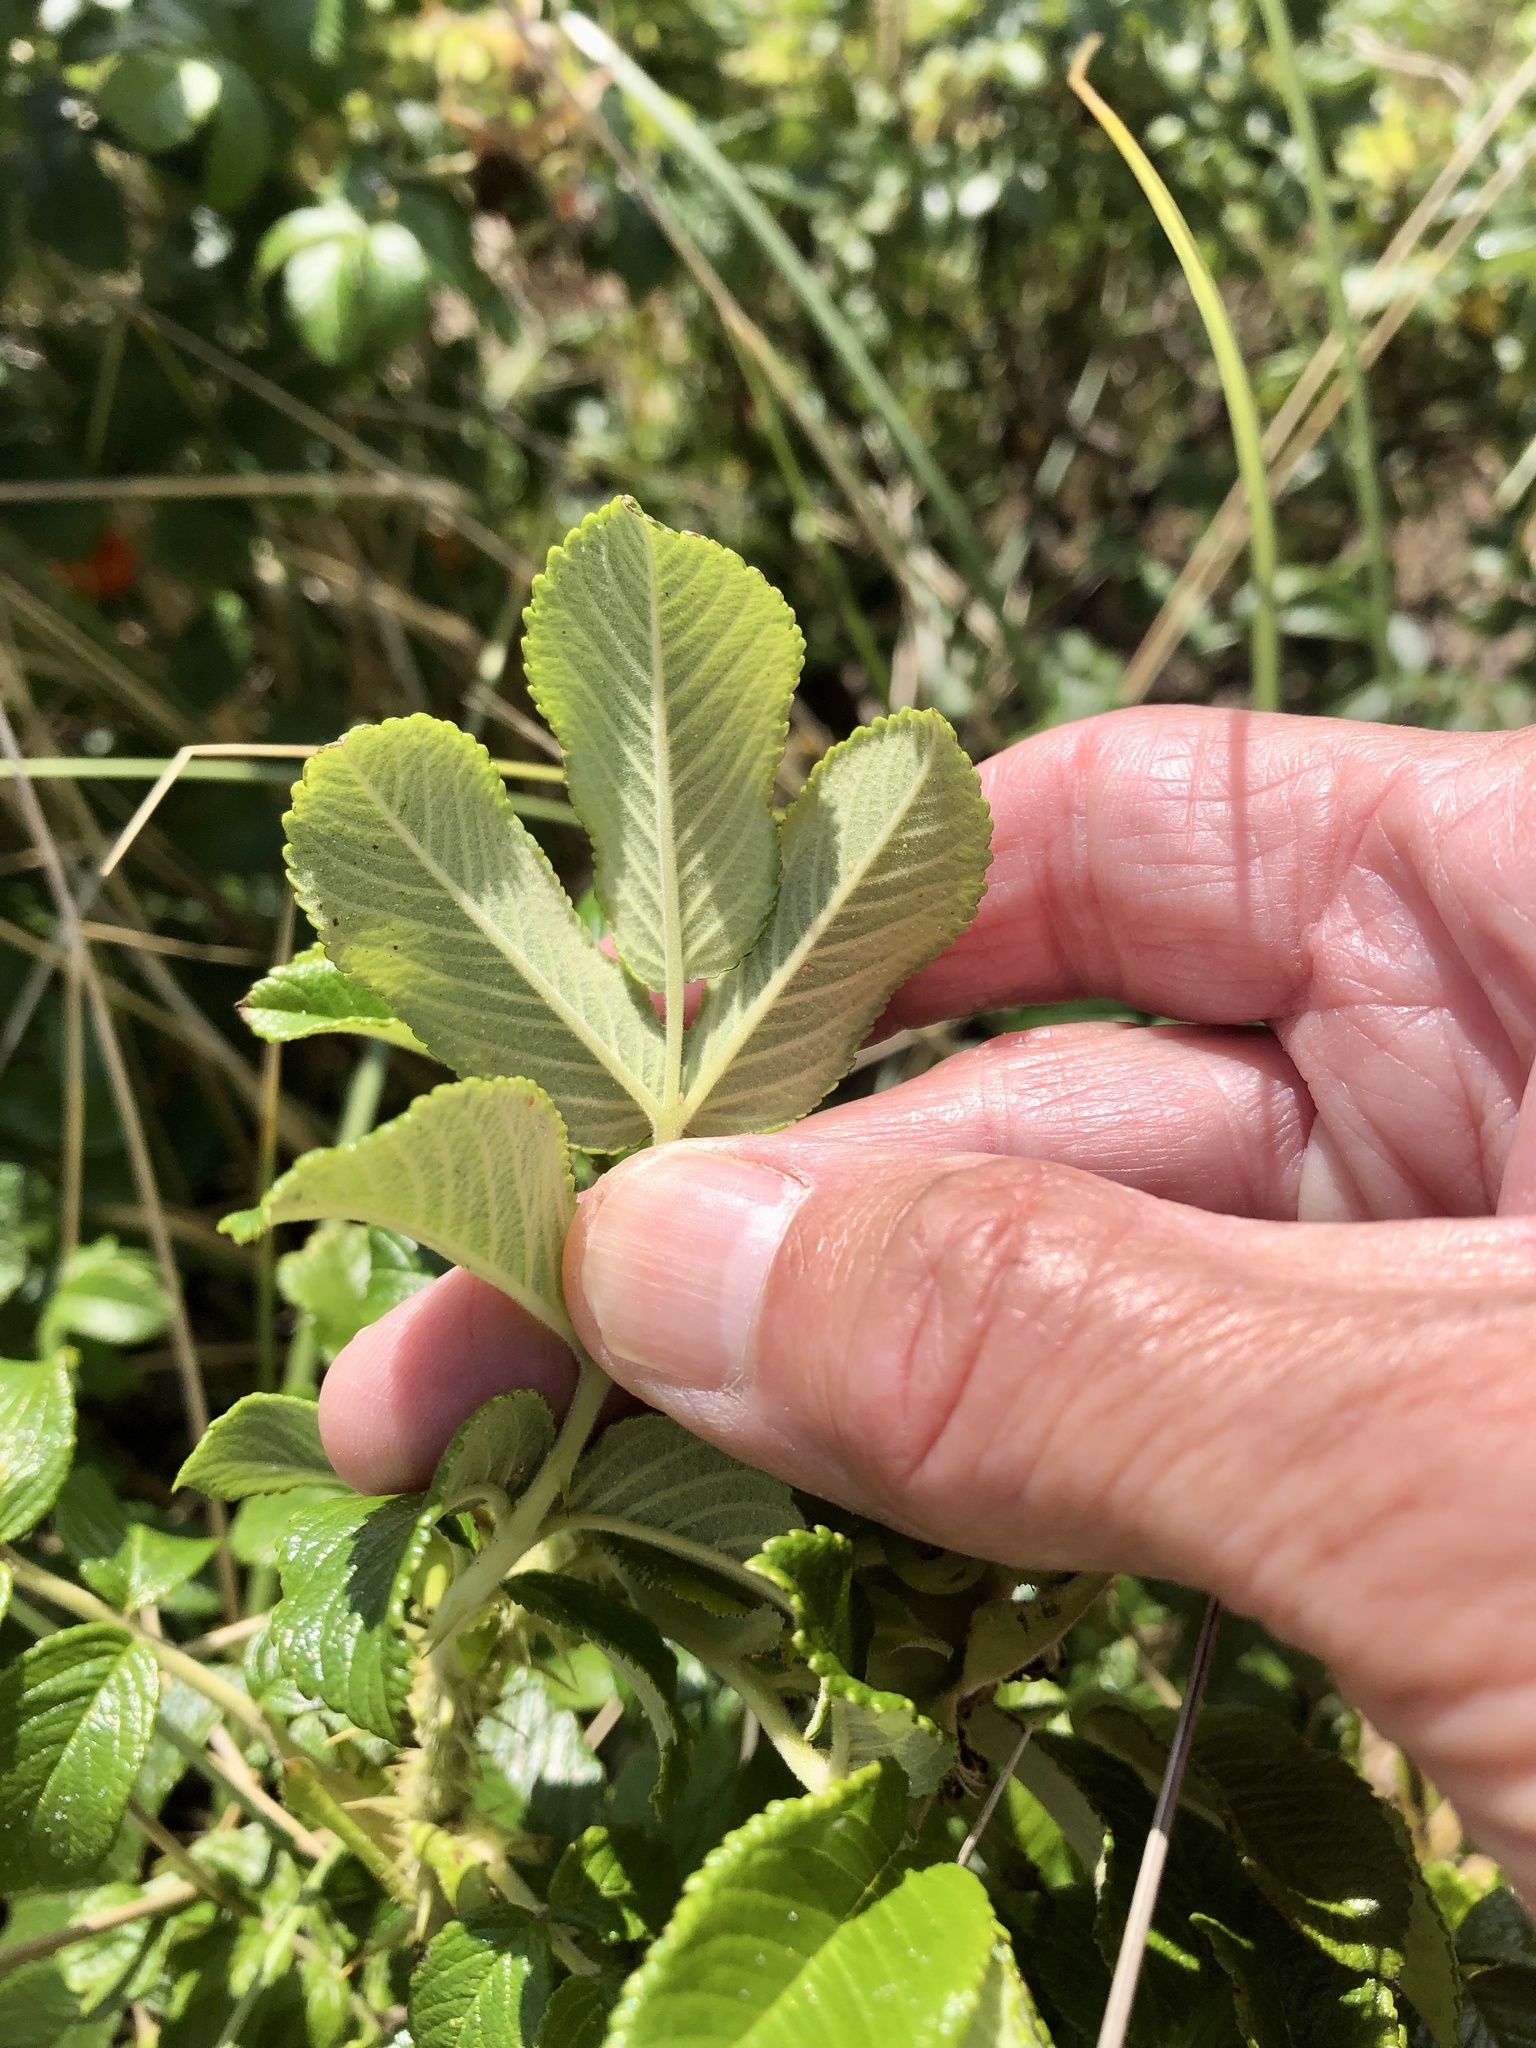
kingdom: Plantae
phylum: Tracheophyta
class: Magnoliopsida
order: Rosales
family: Rosaceae
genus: Rosa
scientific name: Rosa rugosa
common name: Japanese rose
